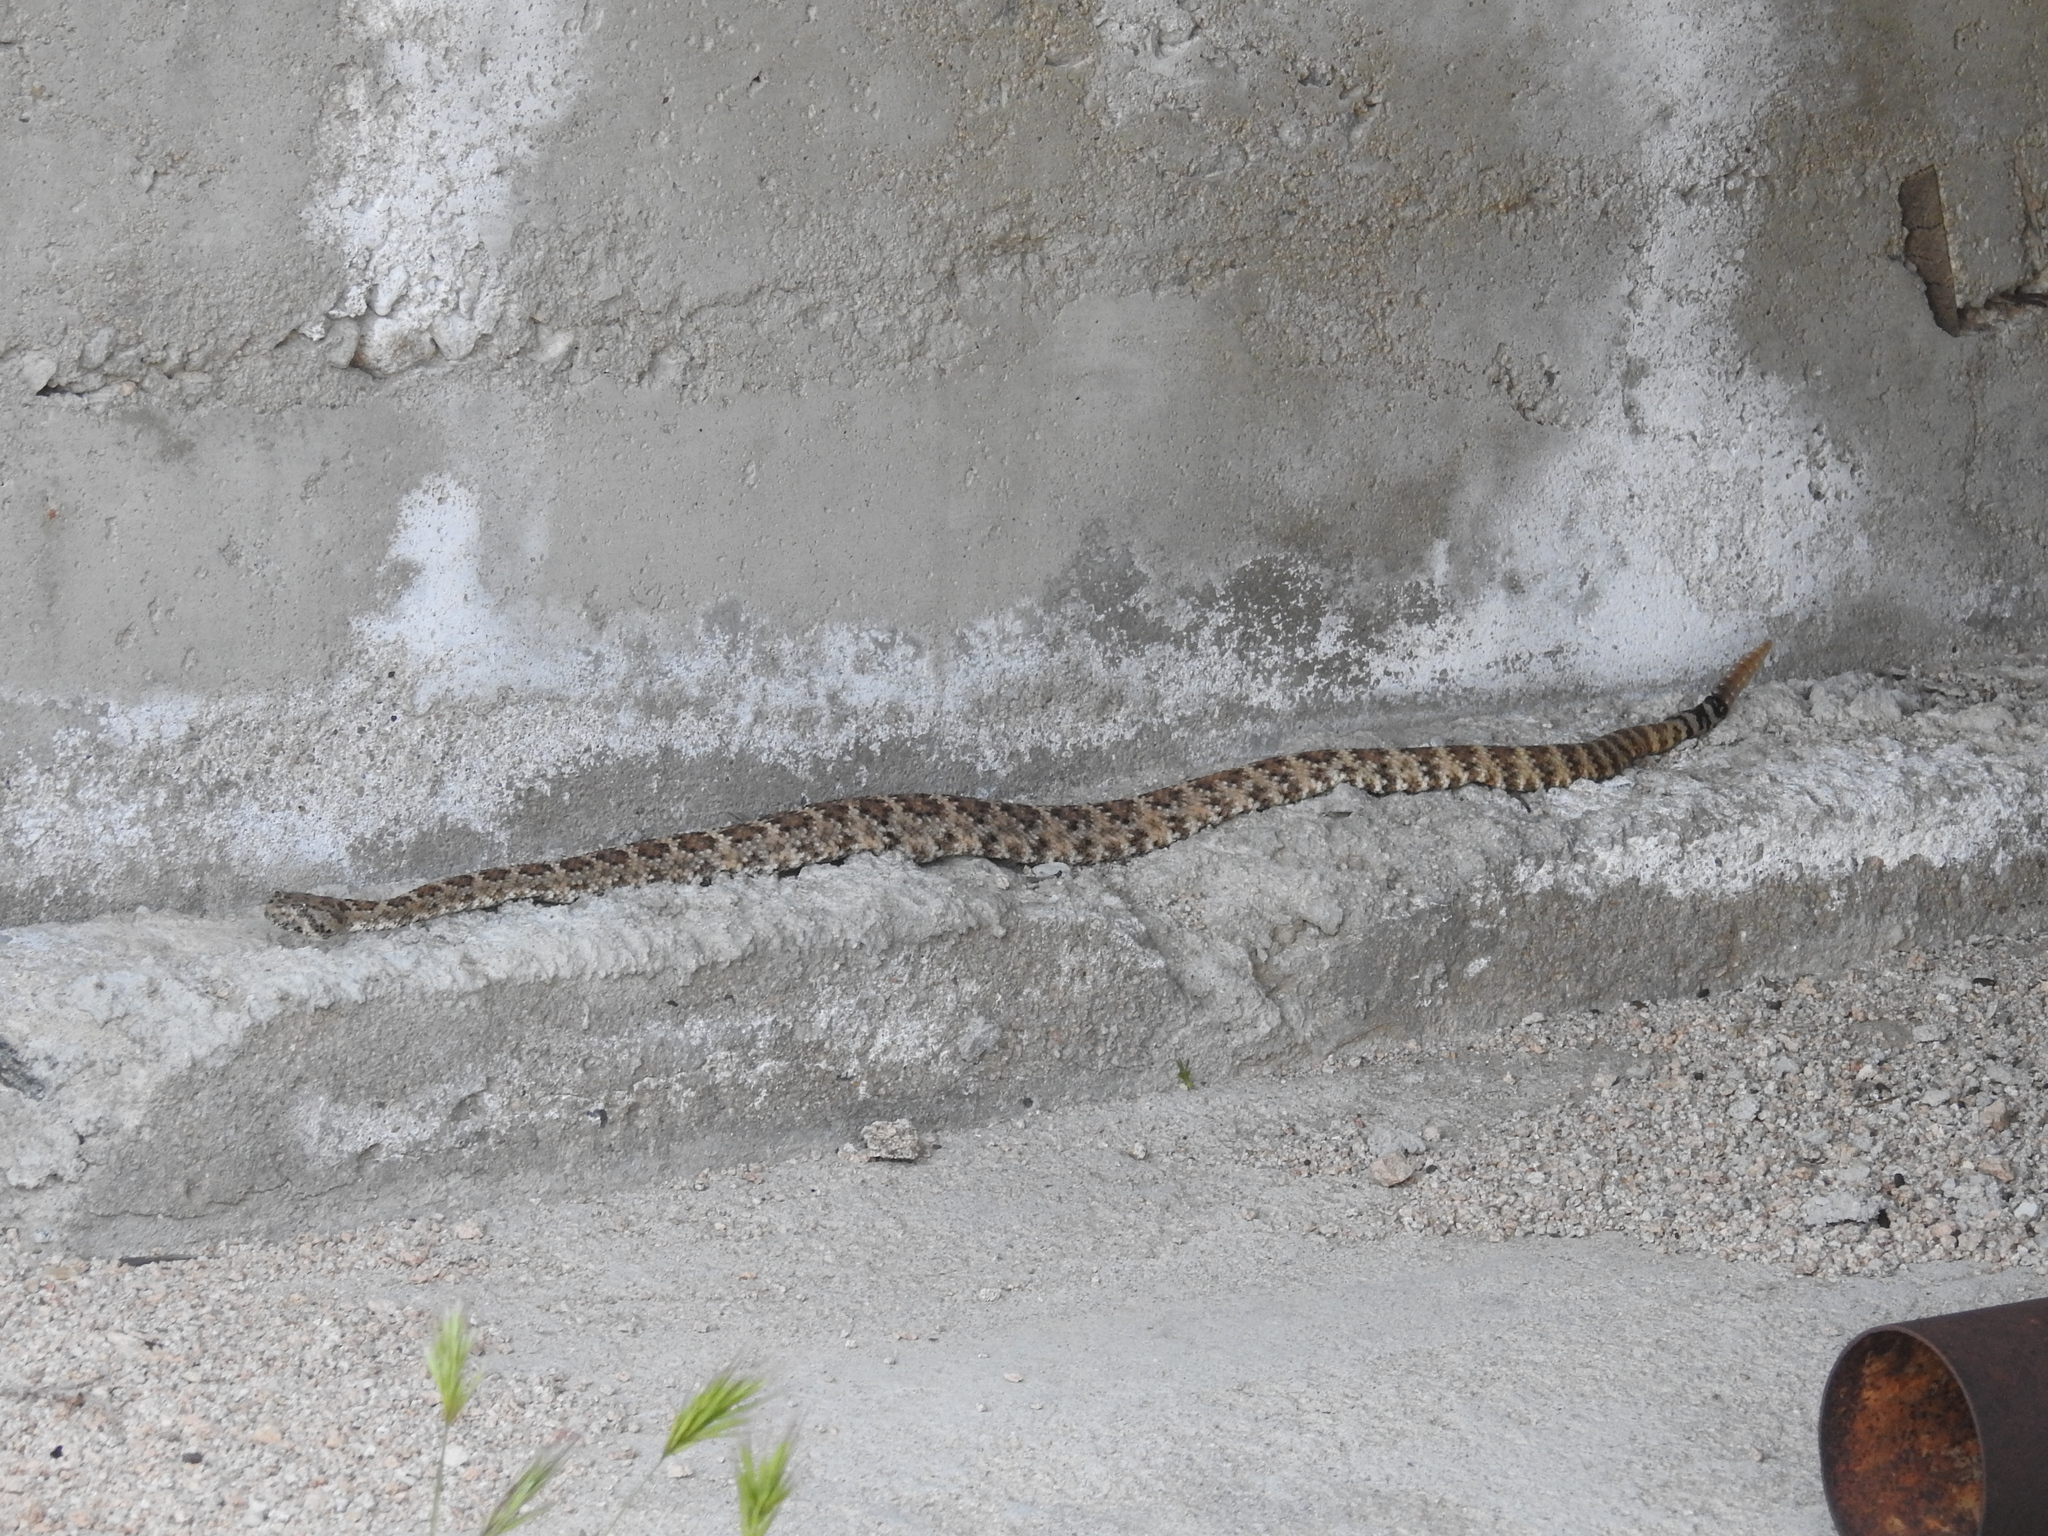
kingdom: Animalia
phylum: Chordata
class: Squamata
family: Viperidae
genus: Crotalus
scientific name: Crotalus pyrrhus
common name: Southwestern speckled rattlesnake
